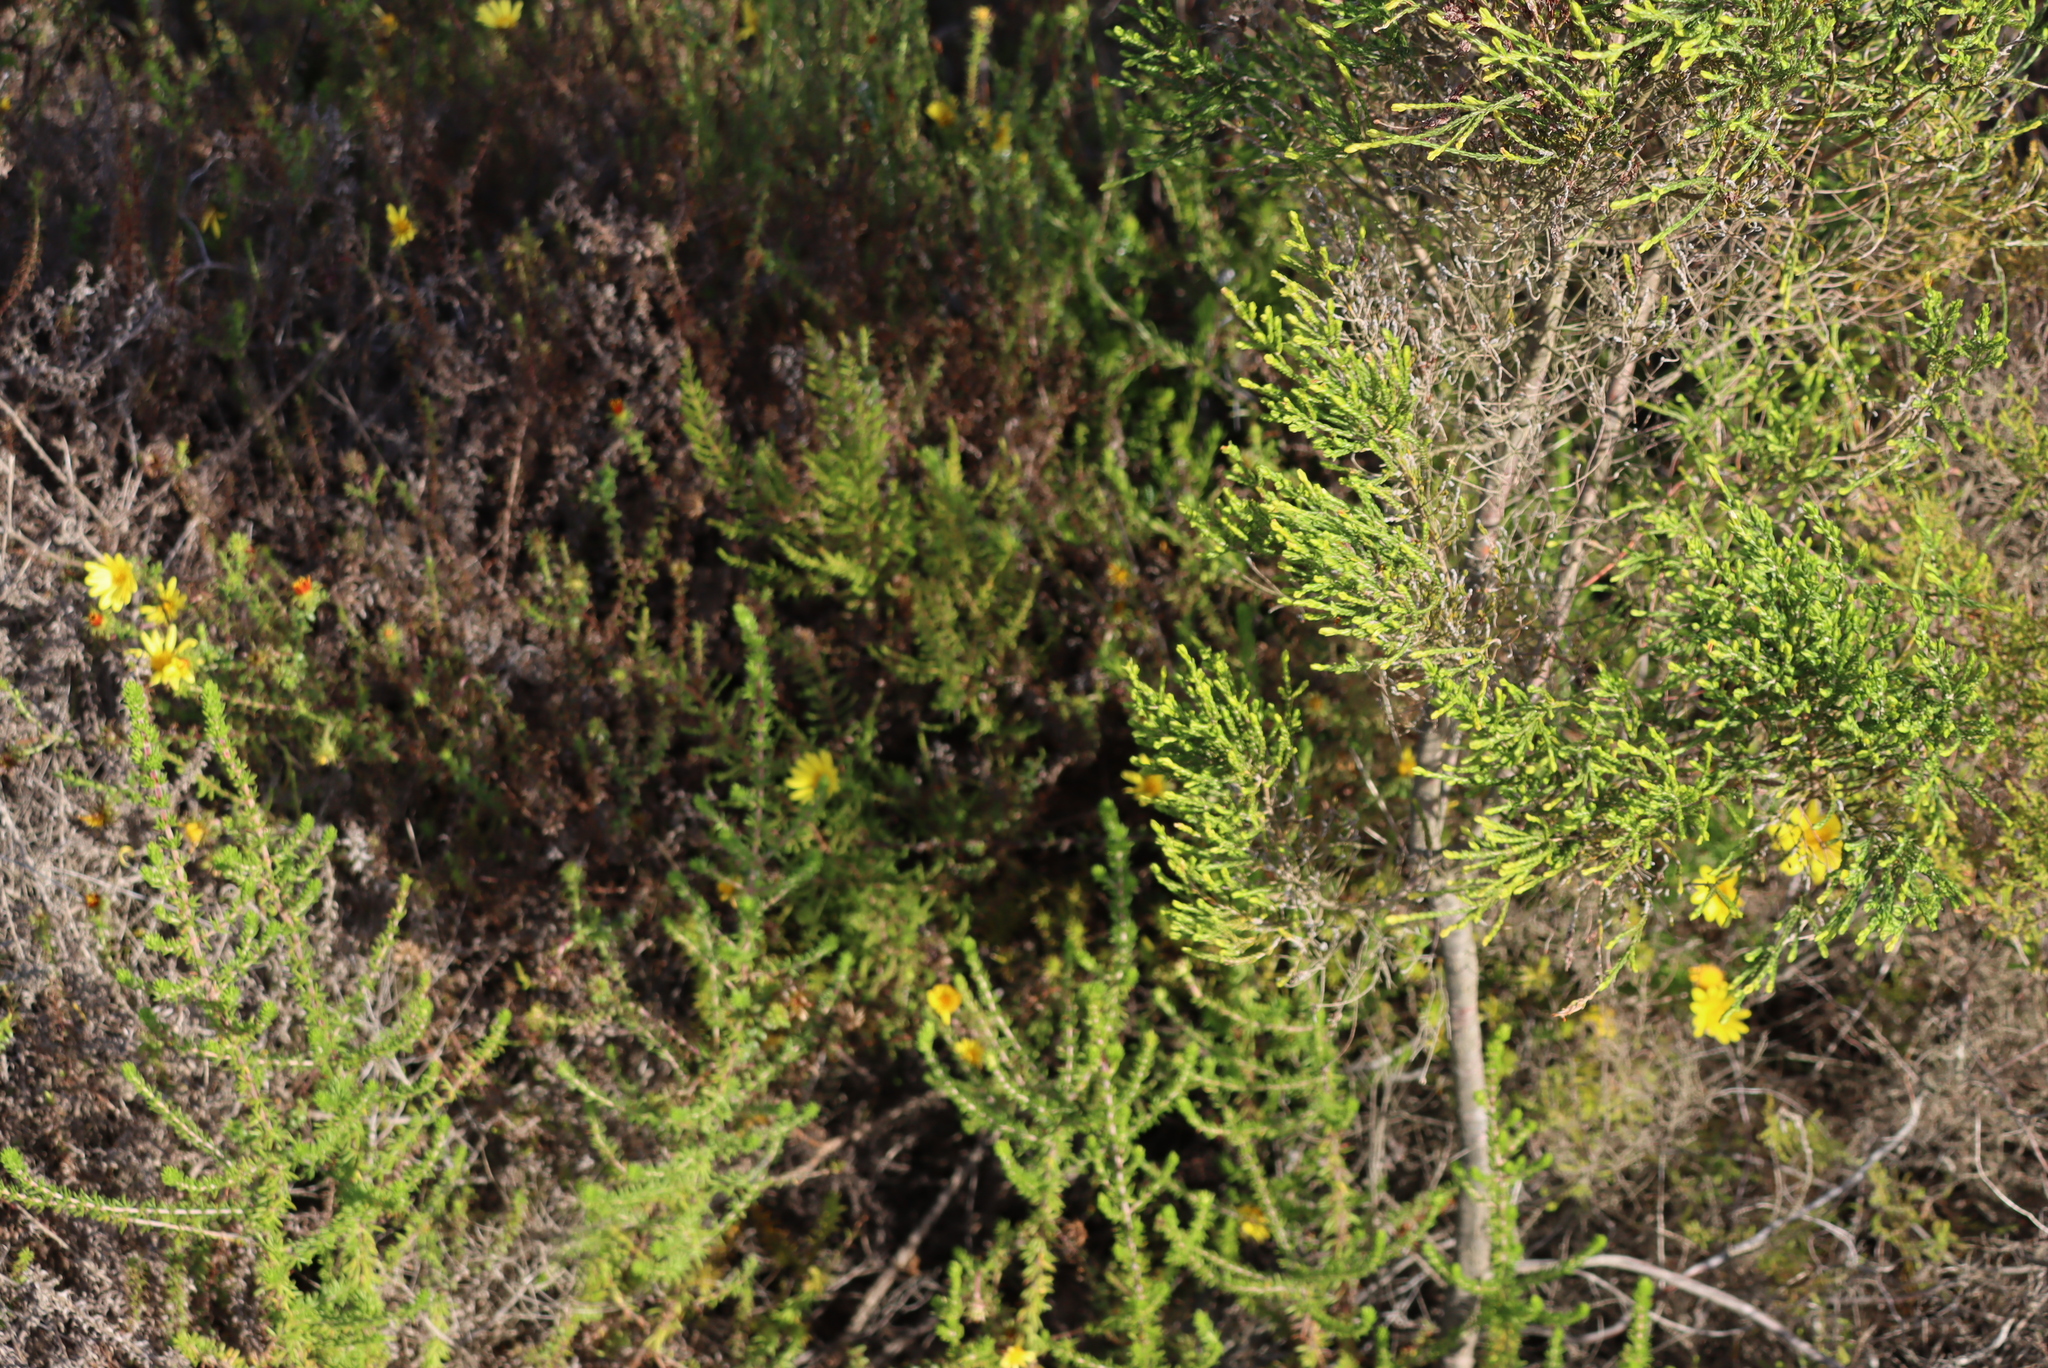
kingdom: Plantae
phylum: Tracheophyta
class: Magnoliopsida
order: Asterales
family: Asteraceae
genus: Cullumia
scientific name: Cullumia setosa
